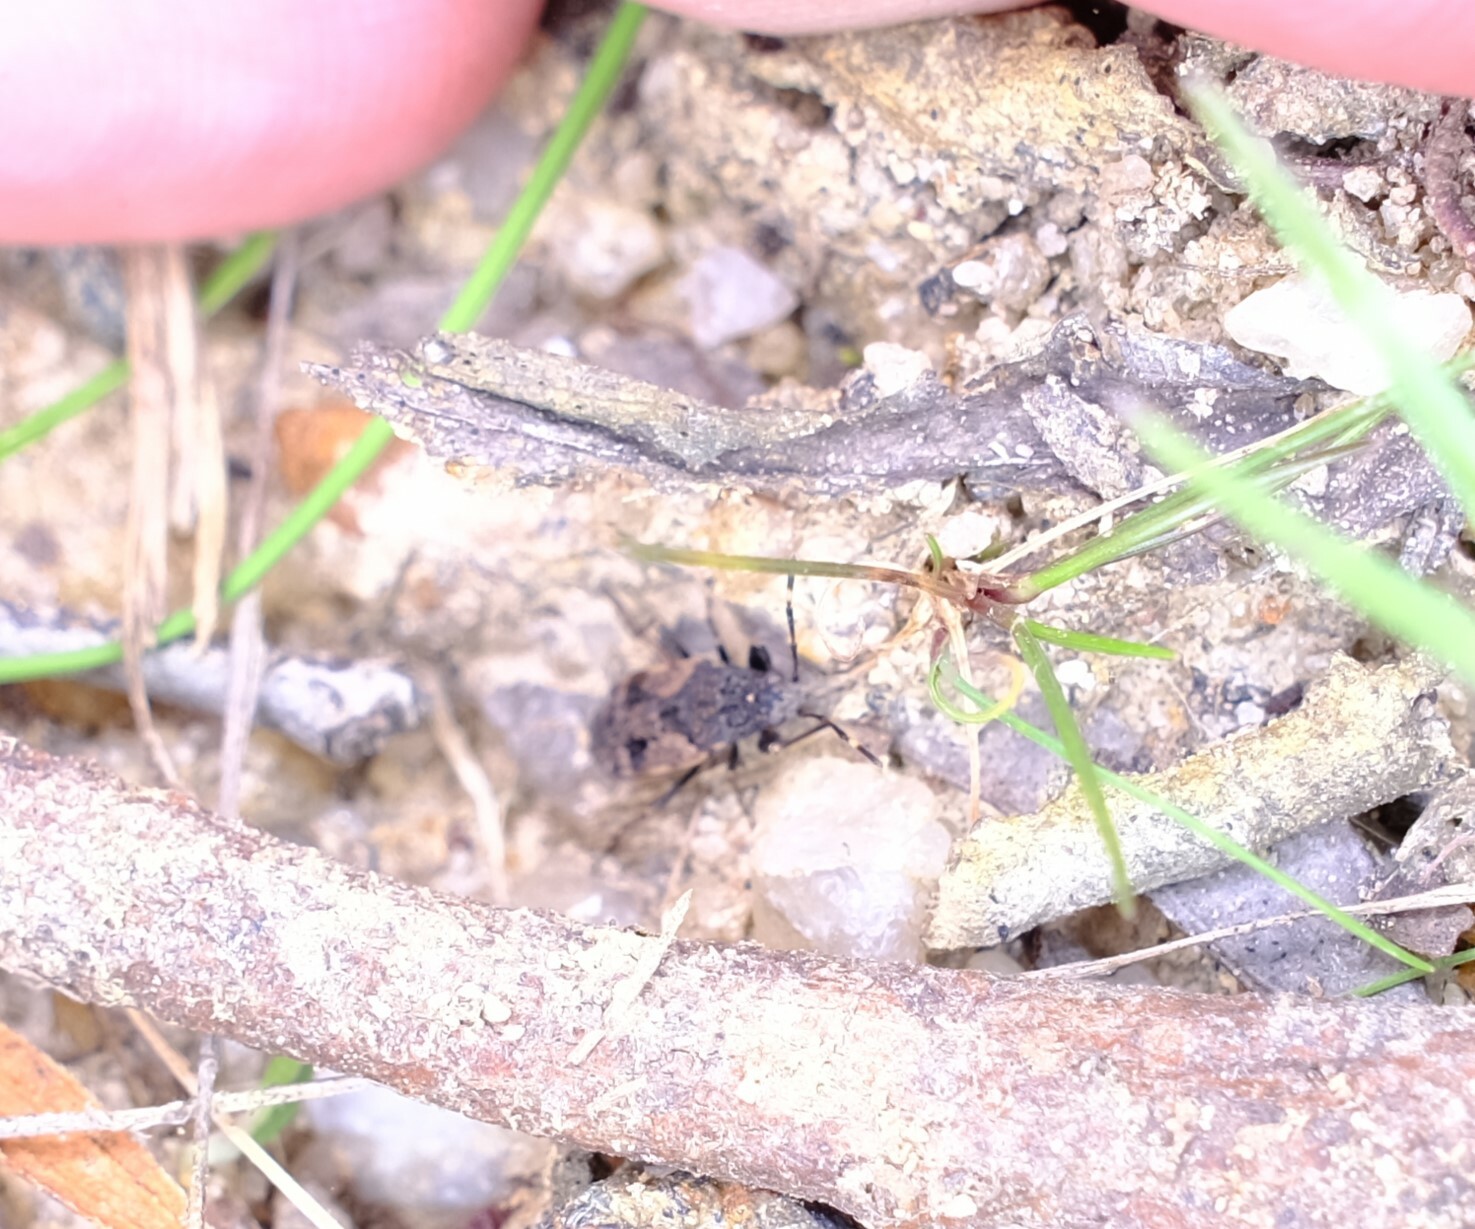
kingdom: Animalia
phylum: Arthropoda
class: Insecta
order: Hemiptera
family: Rhyparochromidae
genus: Euander
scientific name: Euander lacertosus
